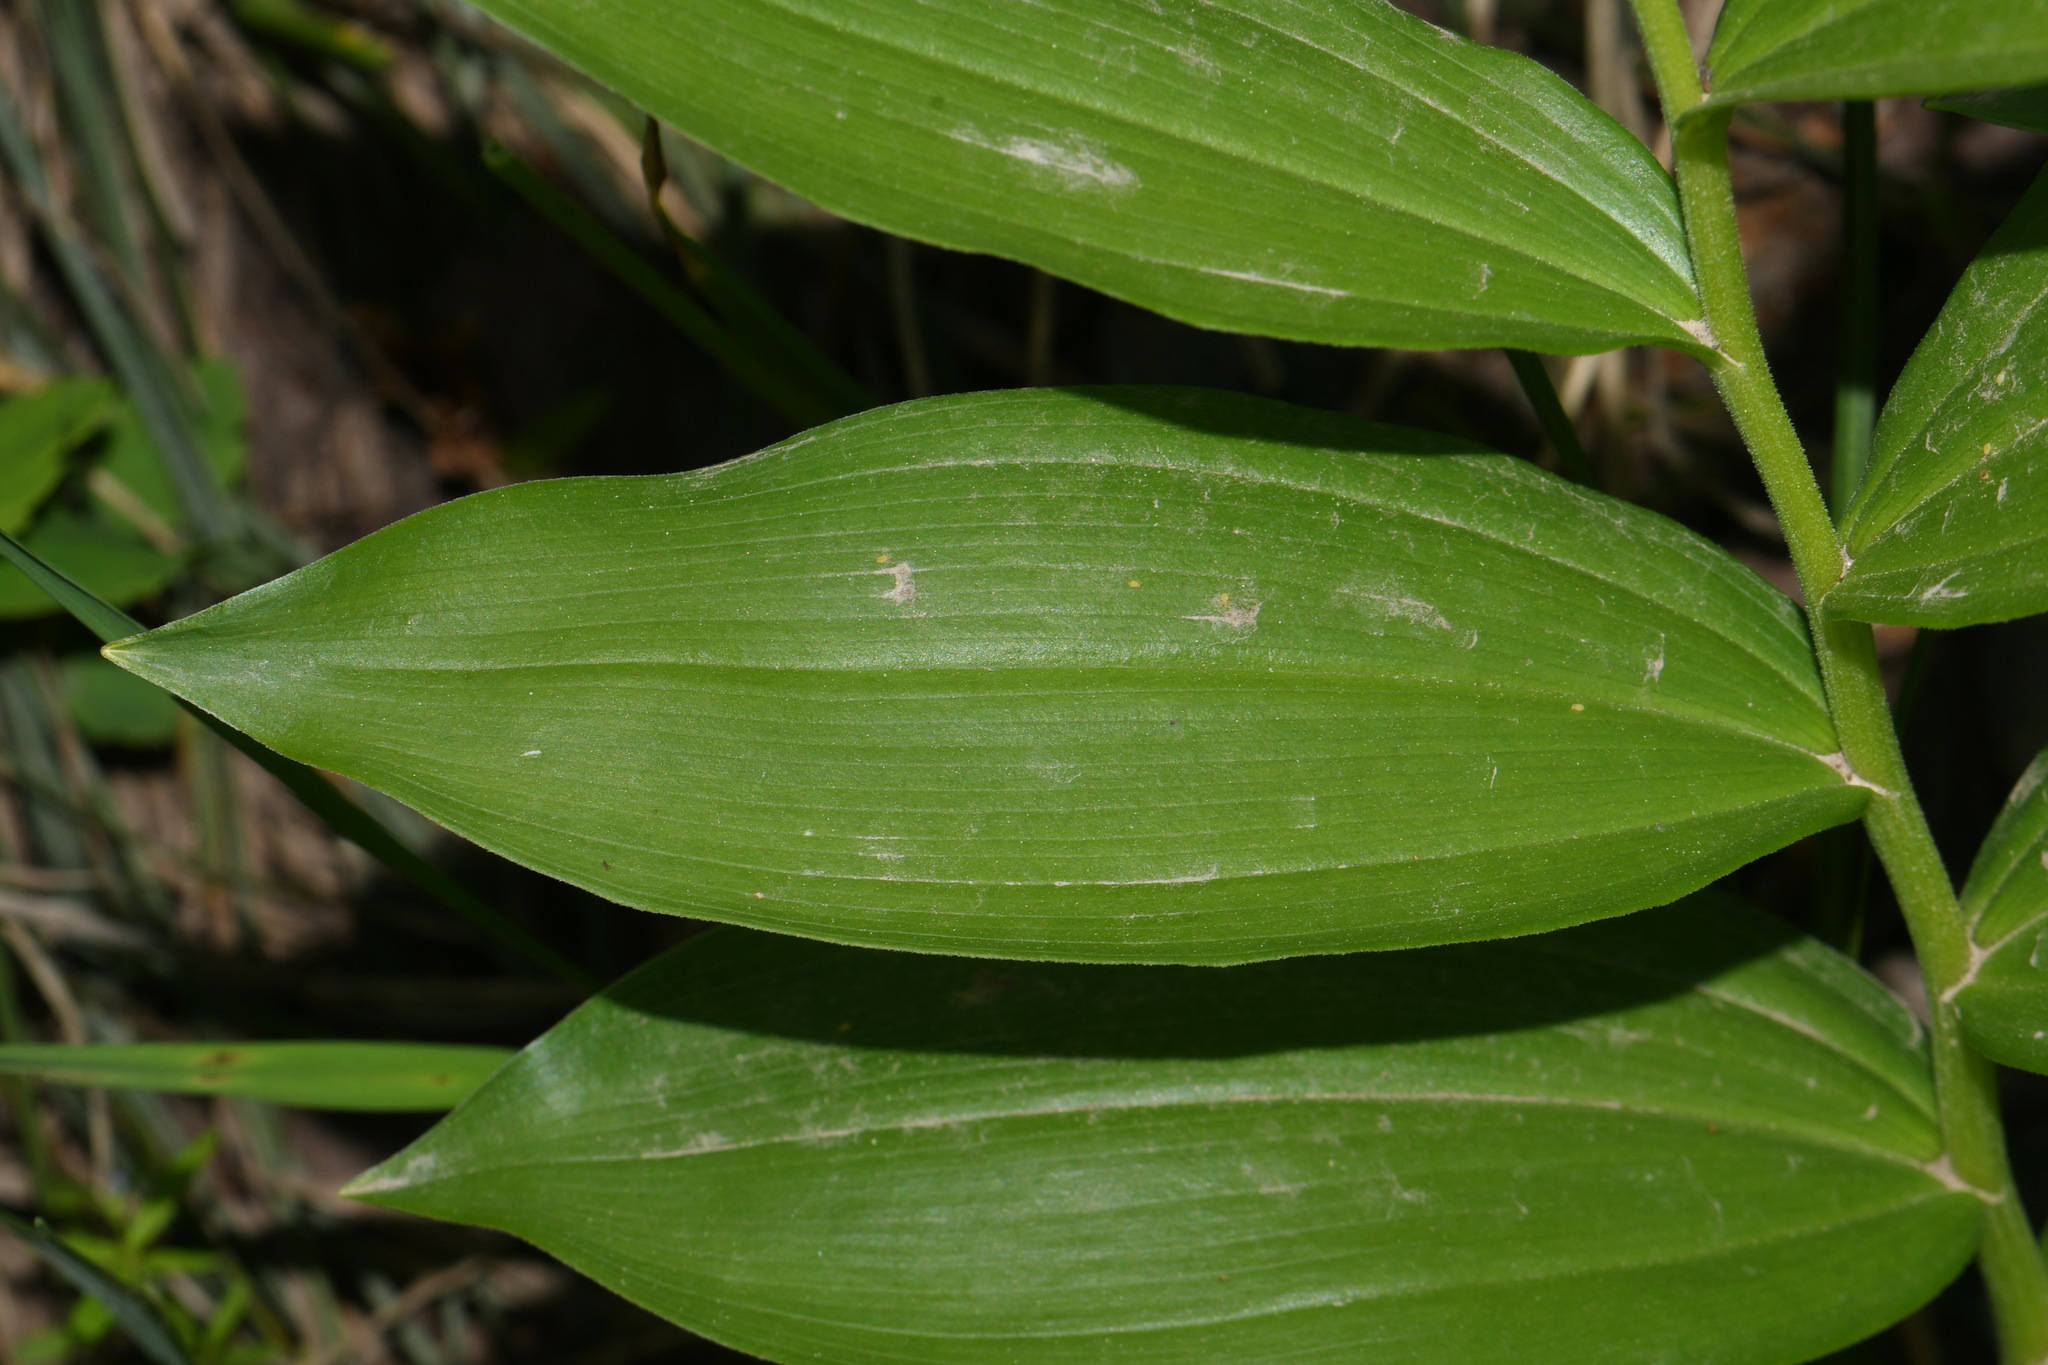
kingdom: Plantae
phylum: Tracheophyta
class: Liliopsida
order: Asparagales
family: Asparagaceae
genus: Maianthemum
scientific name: Maianthemum racemosum
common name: False spikenard
